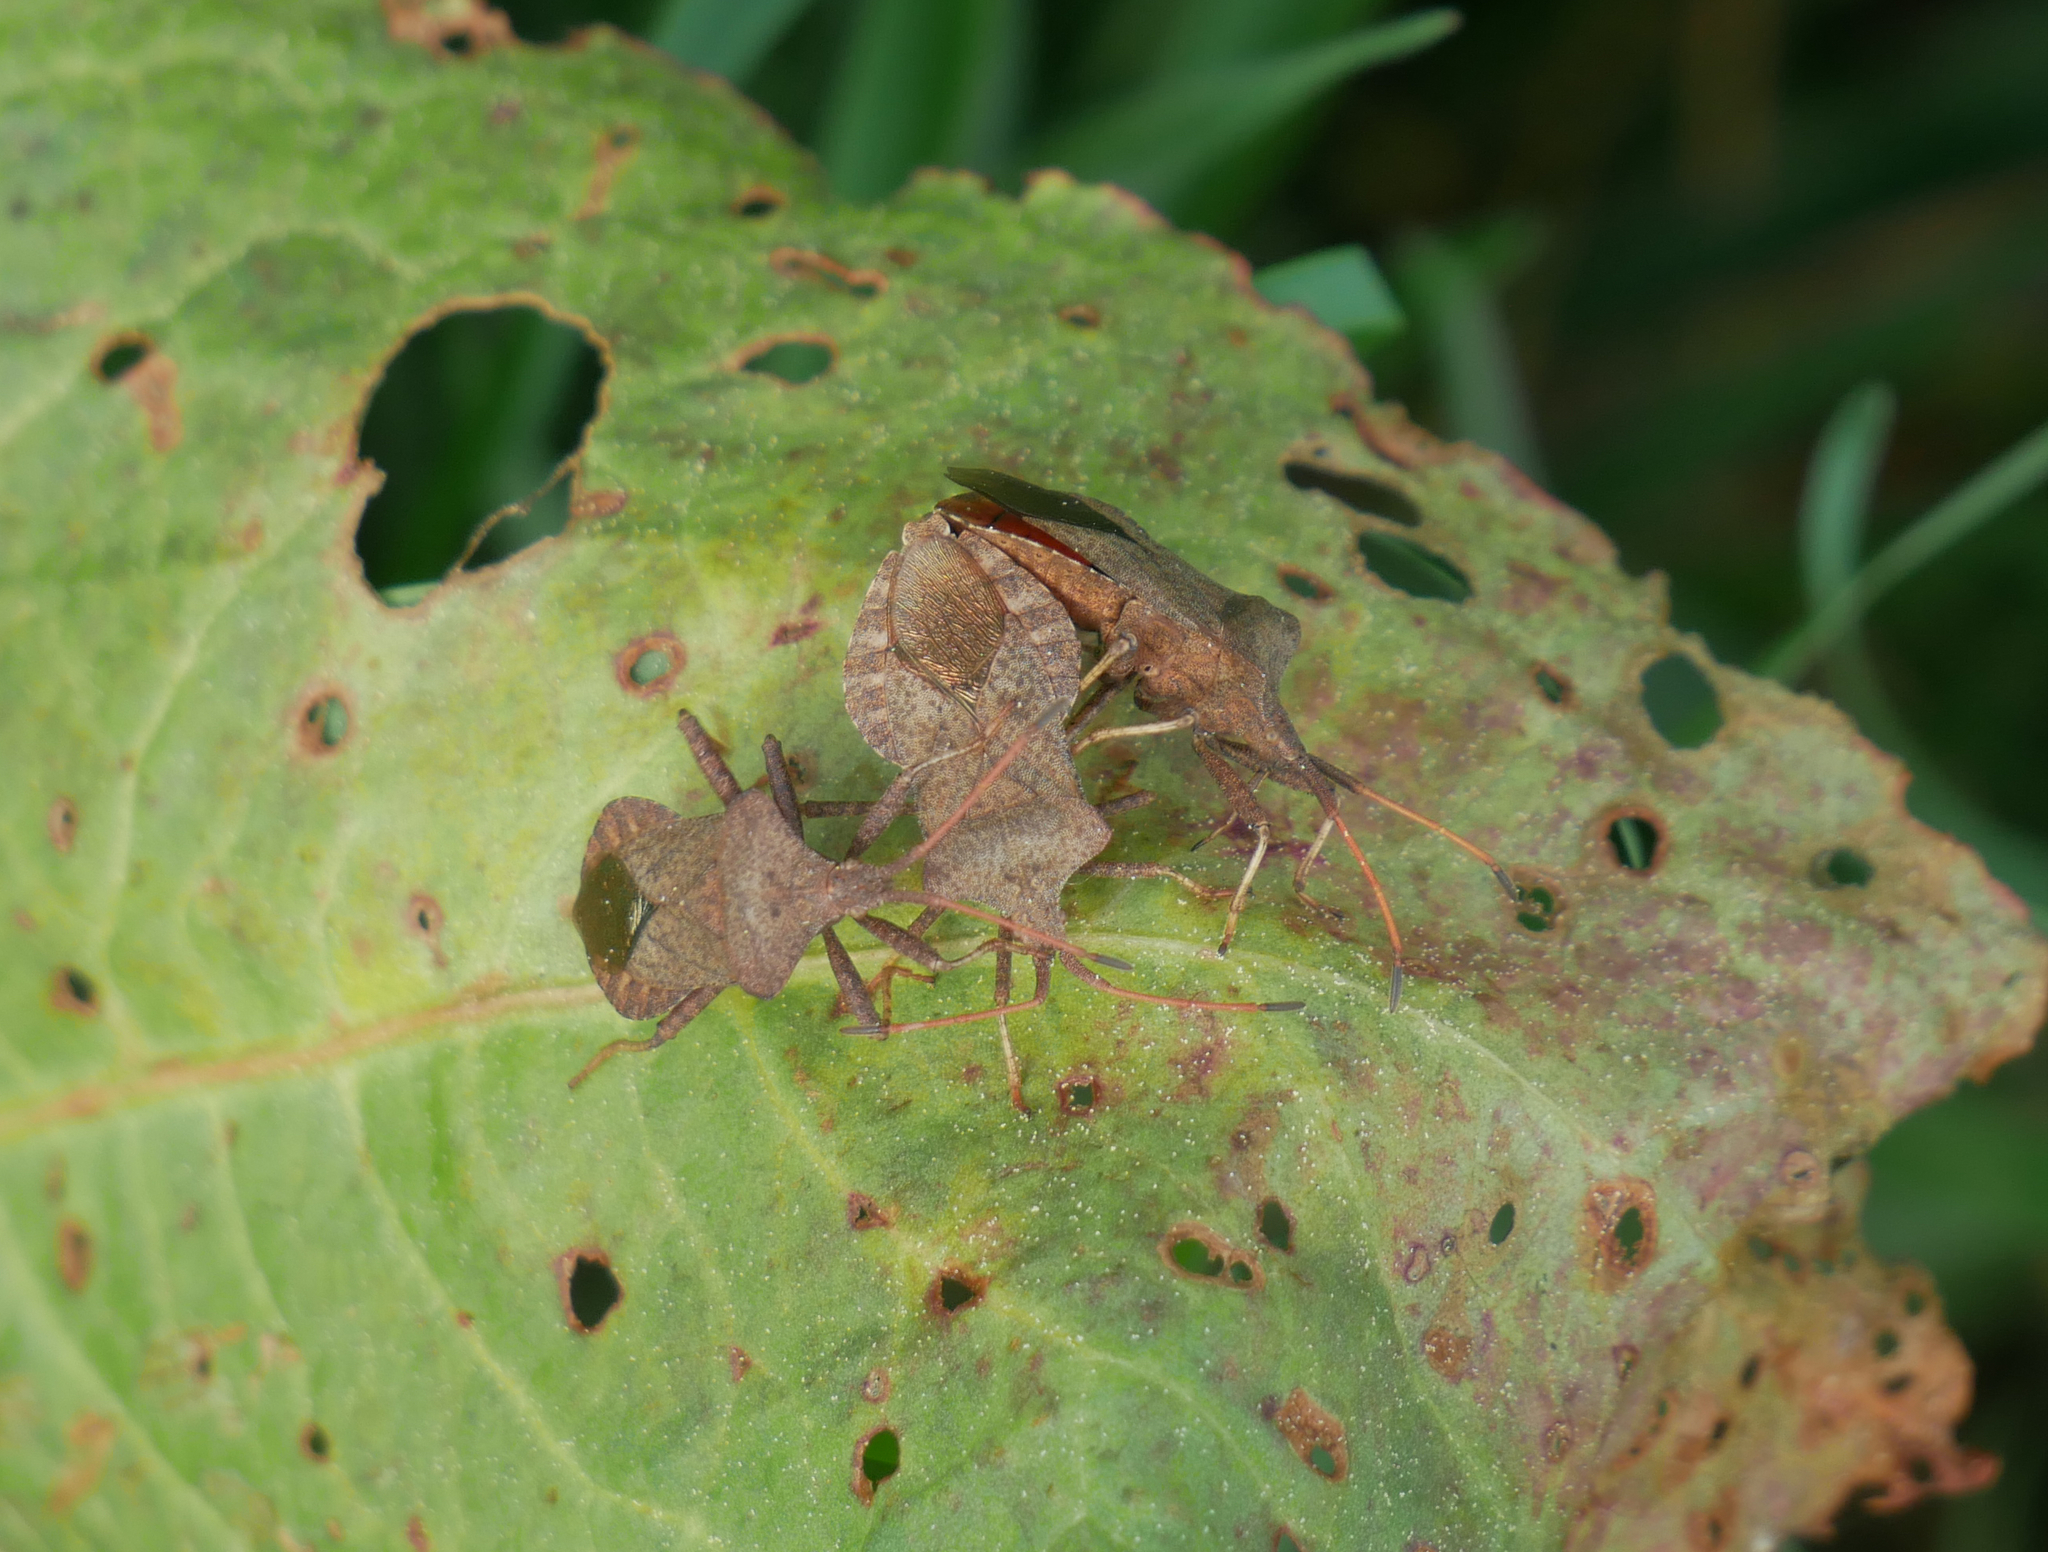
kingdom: Animalia
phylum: Arthropoda
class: Insecta
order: Hemiptera
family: Coreidae
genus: Coreus
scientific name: Coreus marginatus
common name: Dock bug
